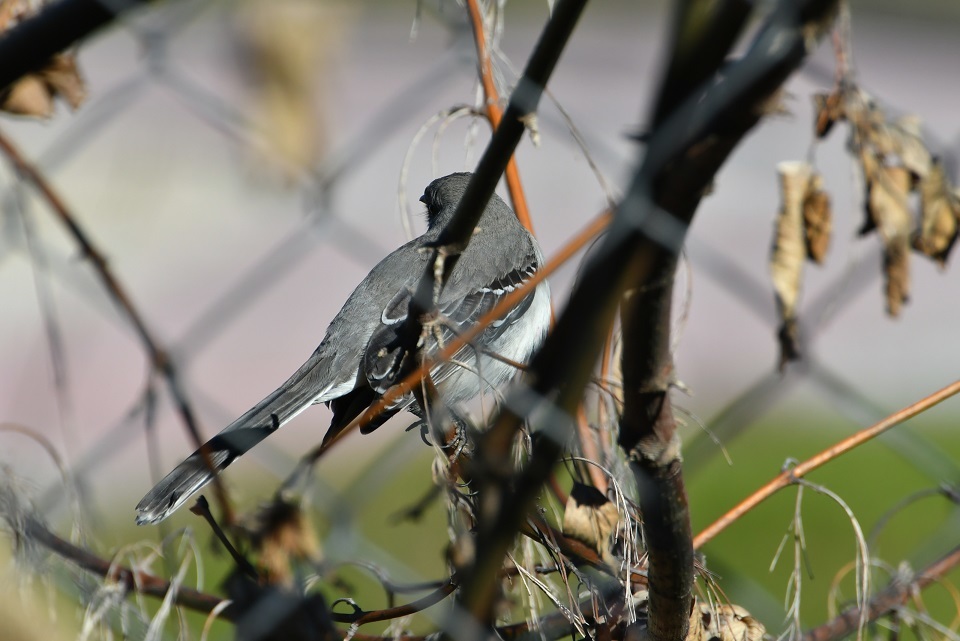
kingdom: Animalia
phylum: Chordata
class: Aves
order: Passeriformes
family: Mimidae
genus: Mimus
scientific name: Mimus gilvus
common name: Tropical mockingbird
